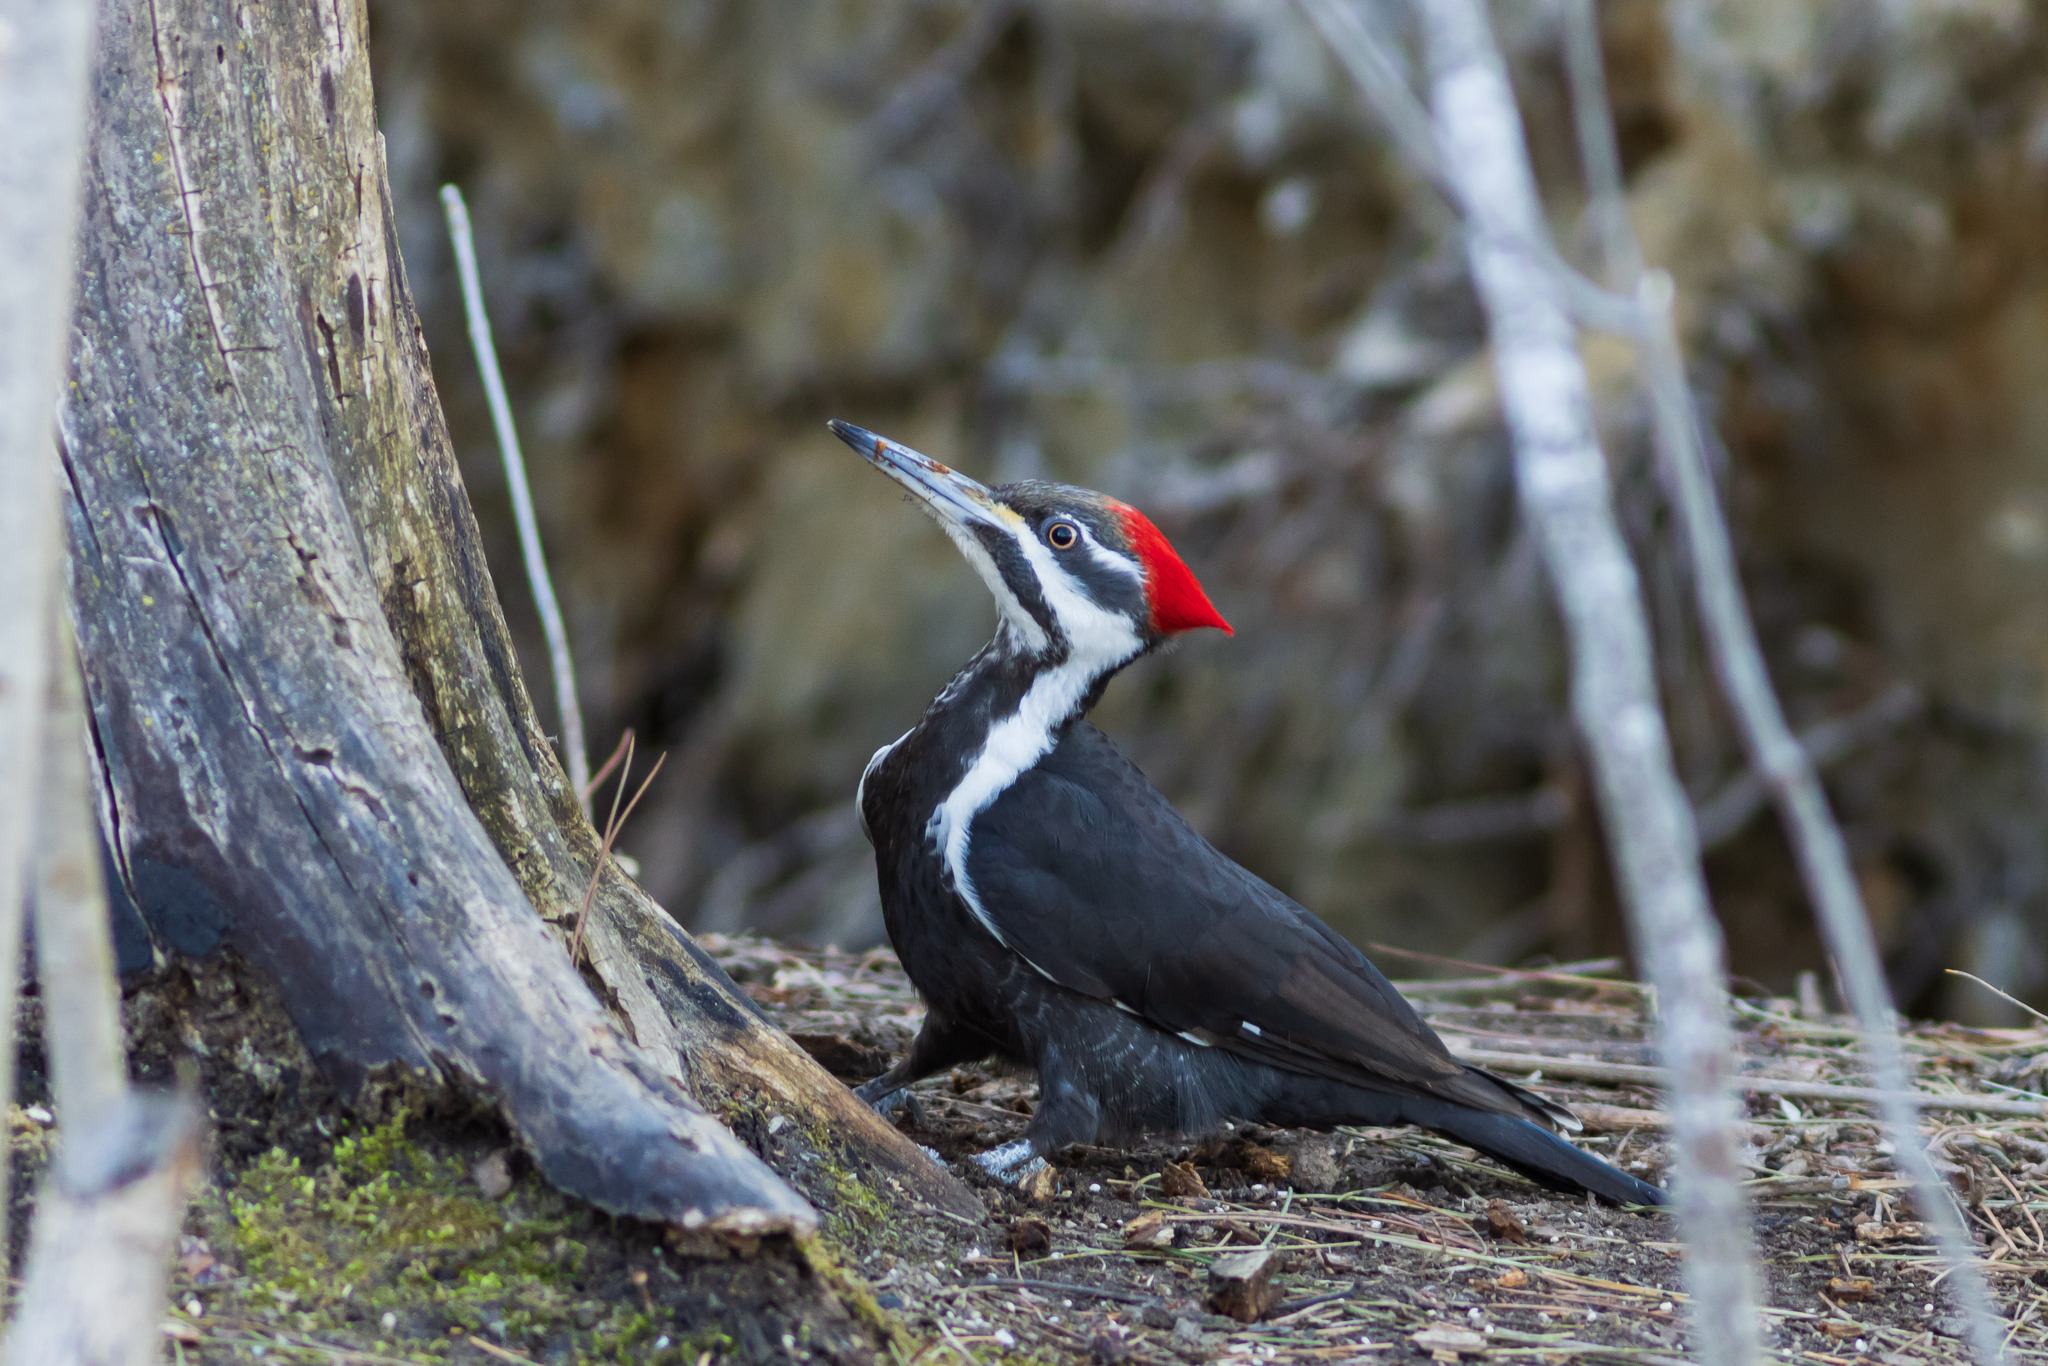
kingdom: Animalia
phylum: Chordata
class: Aves
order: Piciformes
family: Picidae
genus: Dryocopus
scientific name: Dryocopus pileatus
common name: Pileated woodpecker
